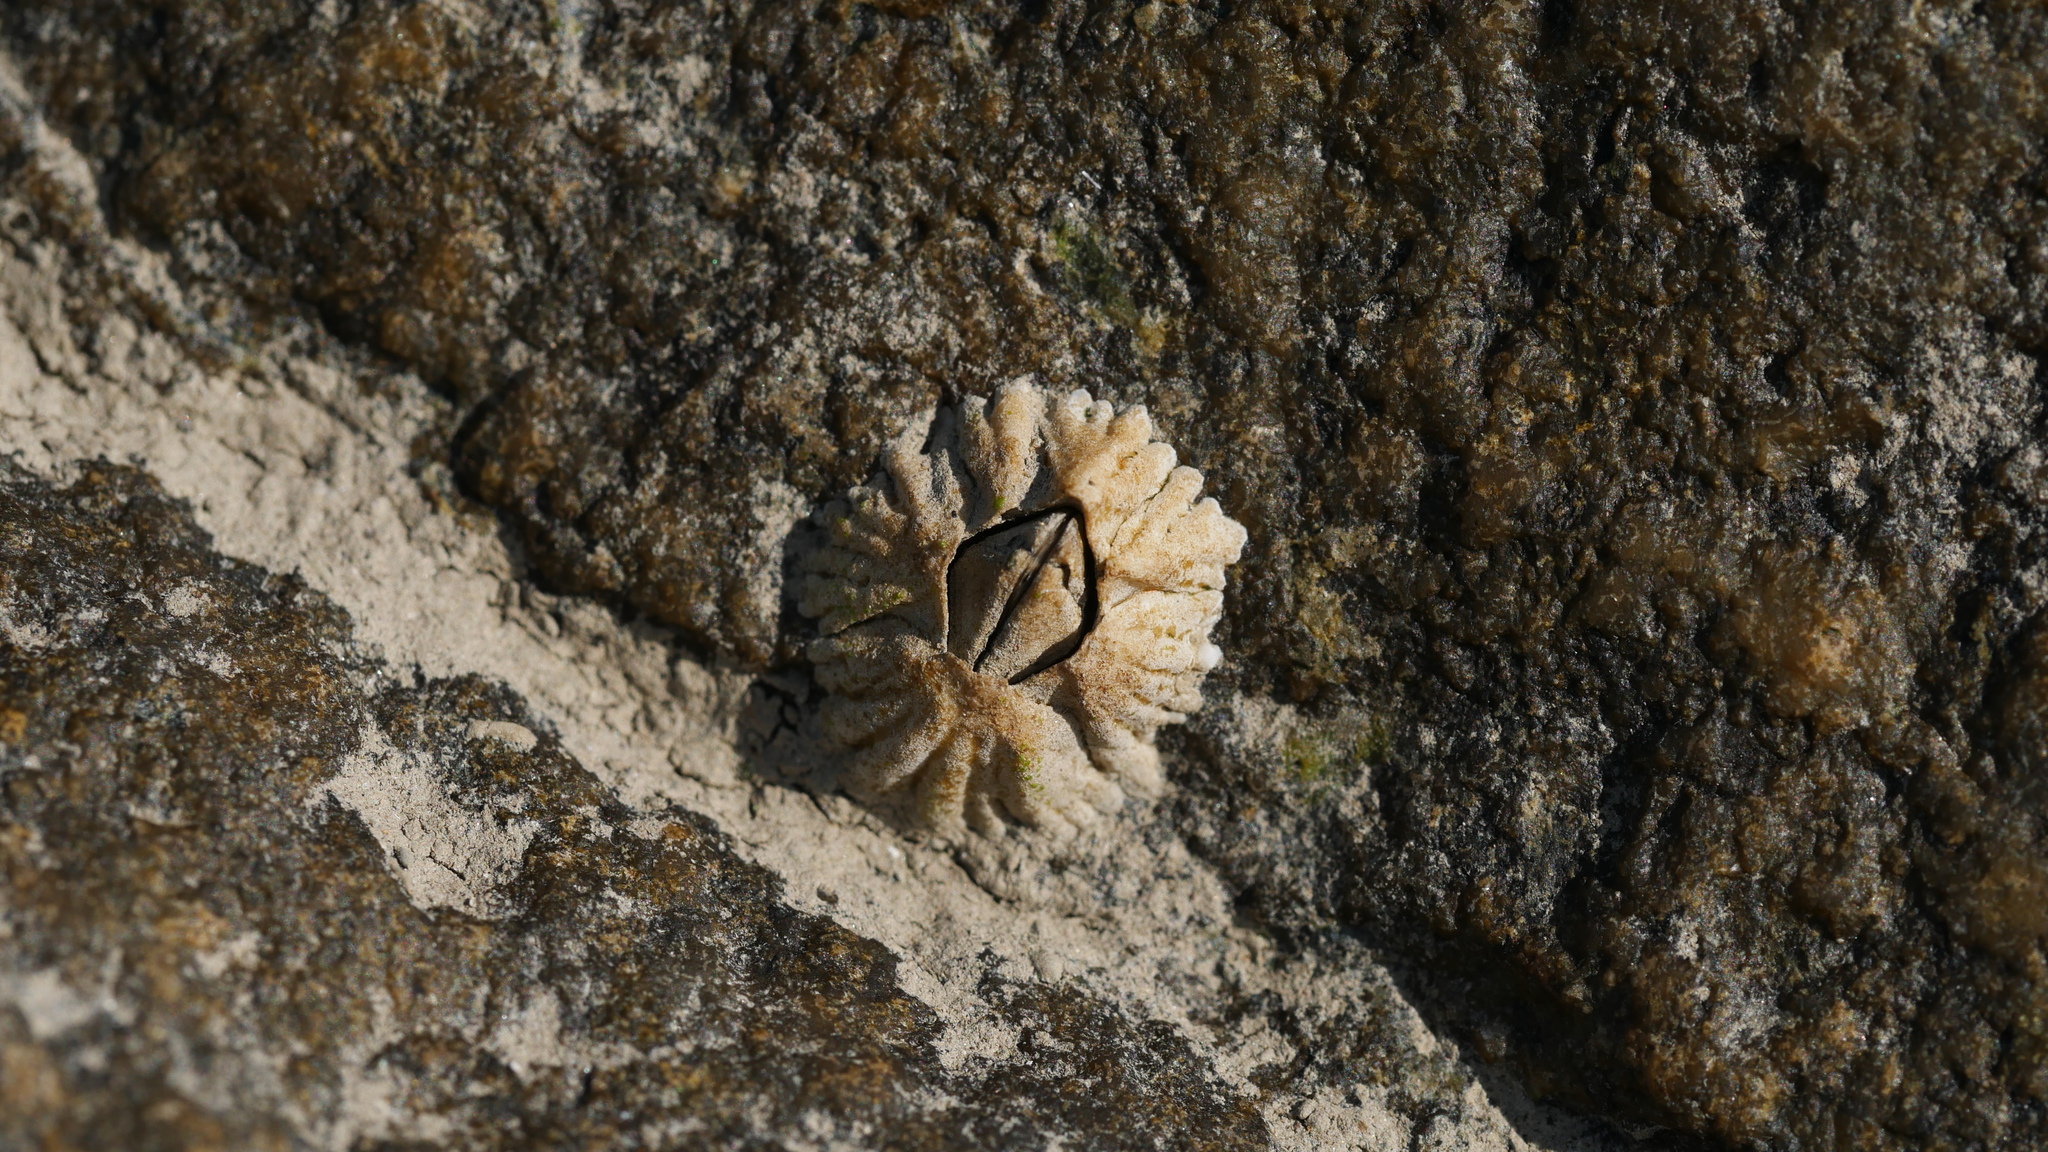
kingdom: Animalia
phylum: Arthropoda
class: Maxillopoda
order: Sessilia
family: Archaeobalanidae
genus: Semibalanus
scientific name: Semibalanus balanoides
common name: Acorn barnacle
